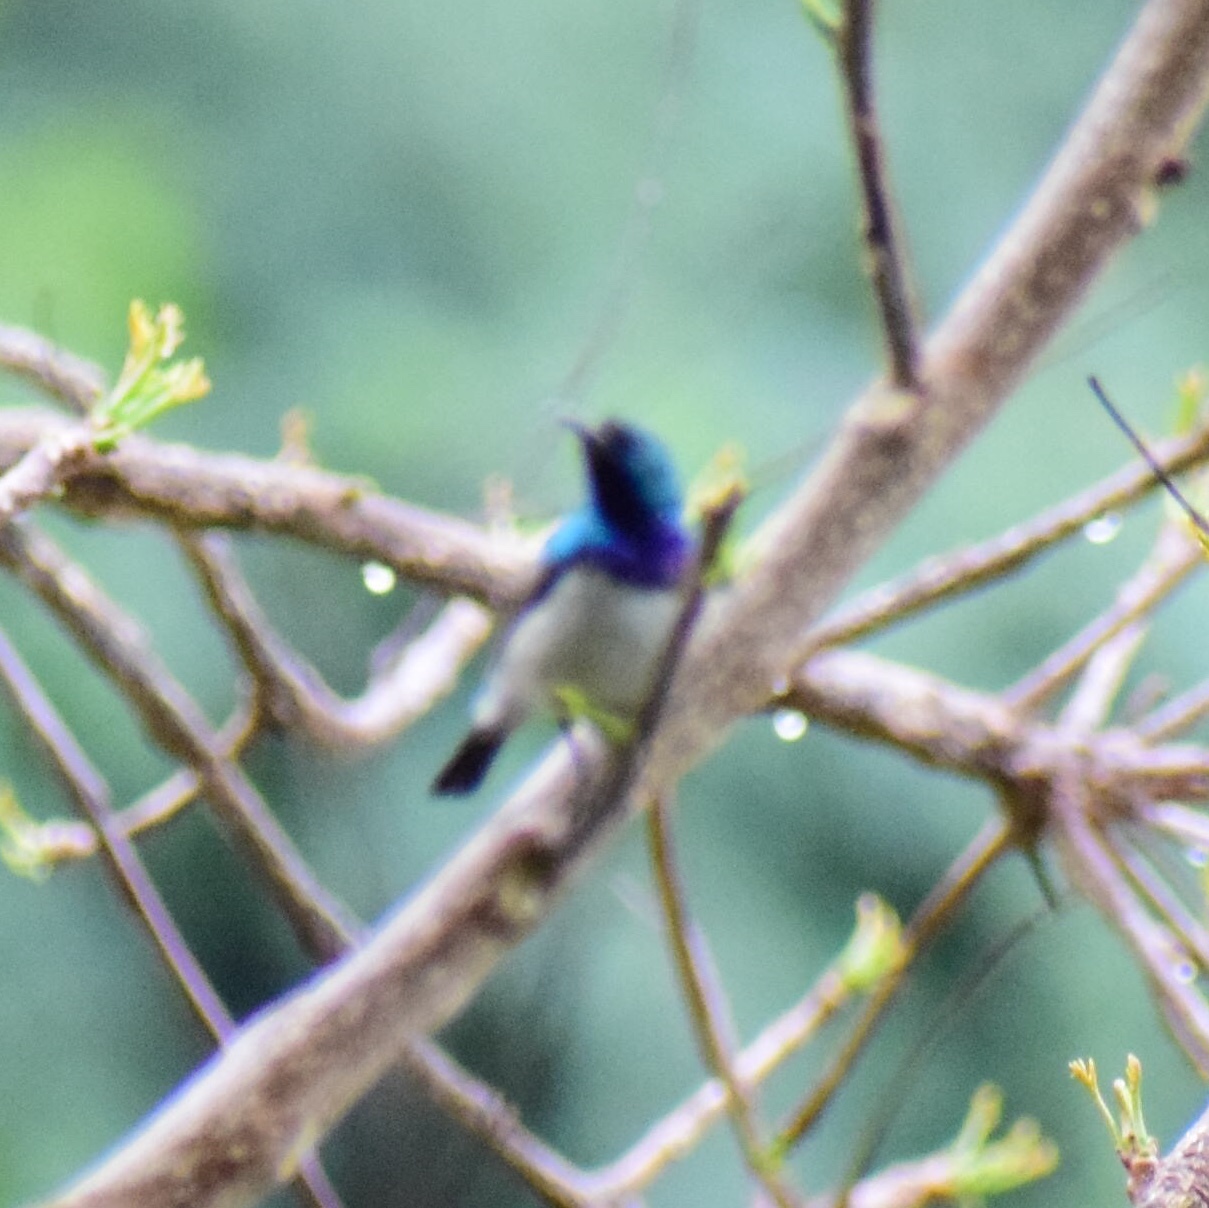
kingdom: Animalia
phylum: Chordata
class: Aves
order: Passeriformes
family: Nectariniidae
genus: Cinnyris
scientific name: Cinnyris talatala
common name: White-bellied sunbird
